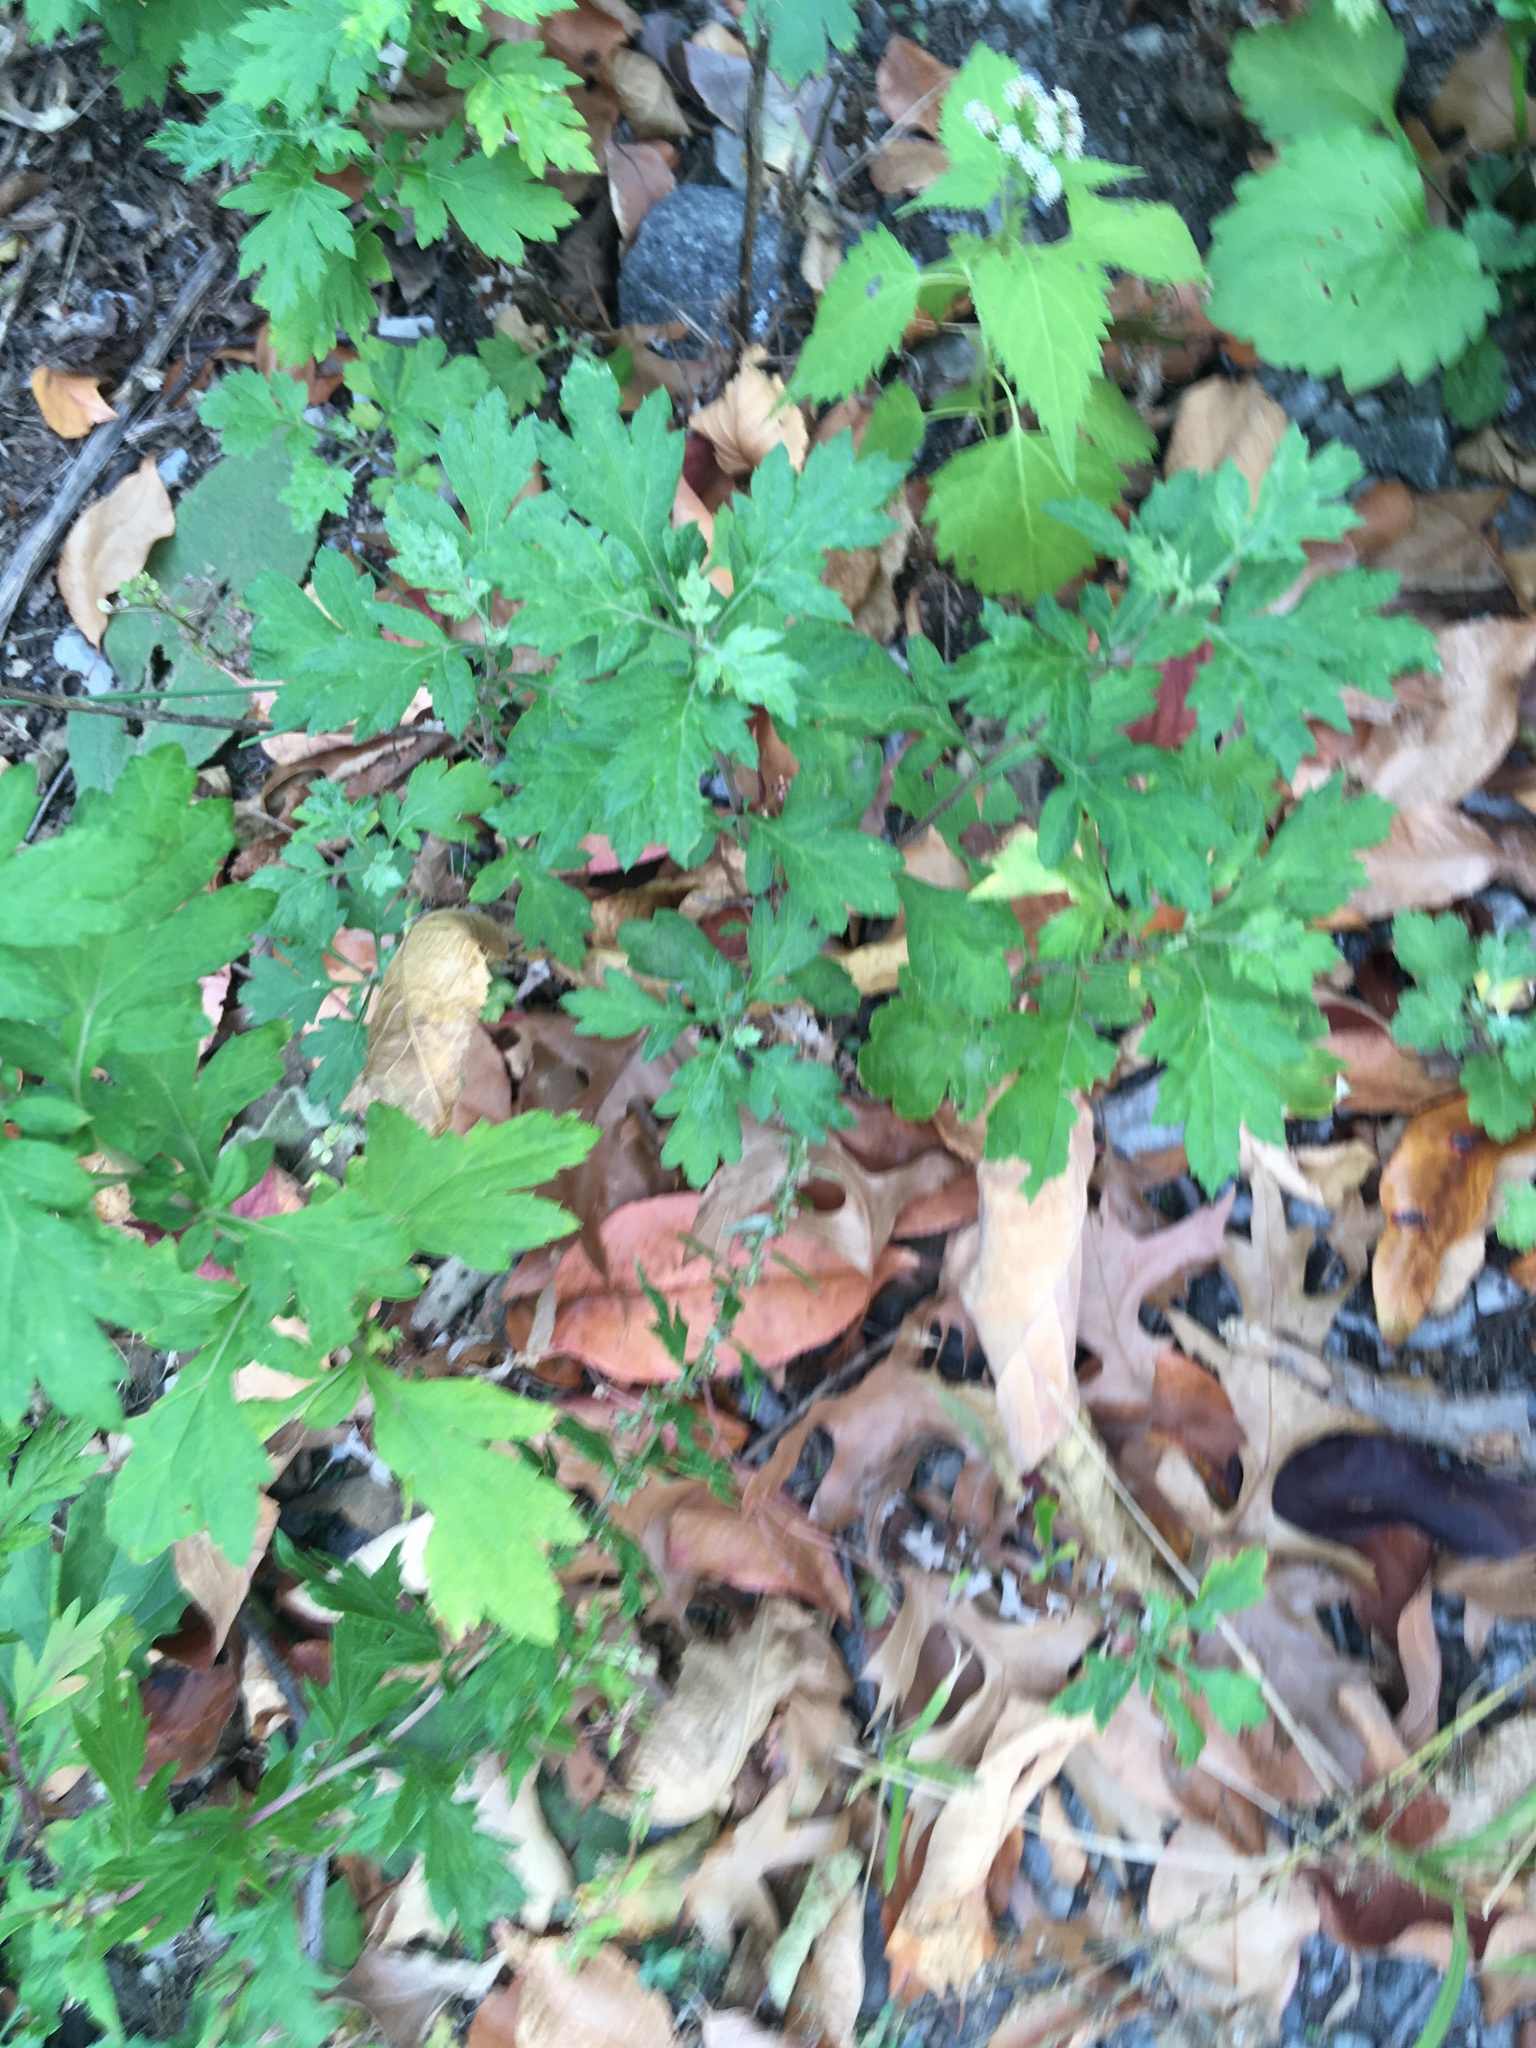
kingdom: Plantae
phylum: Tracheophyta
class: Magnoliopsida
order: Asterales
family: Asteraceae
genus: Artemisia
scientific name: Artemisia vulgaris
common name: Mugwort
